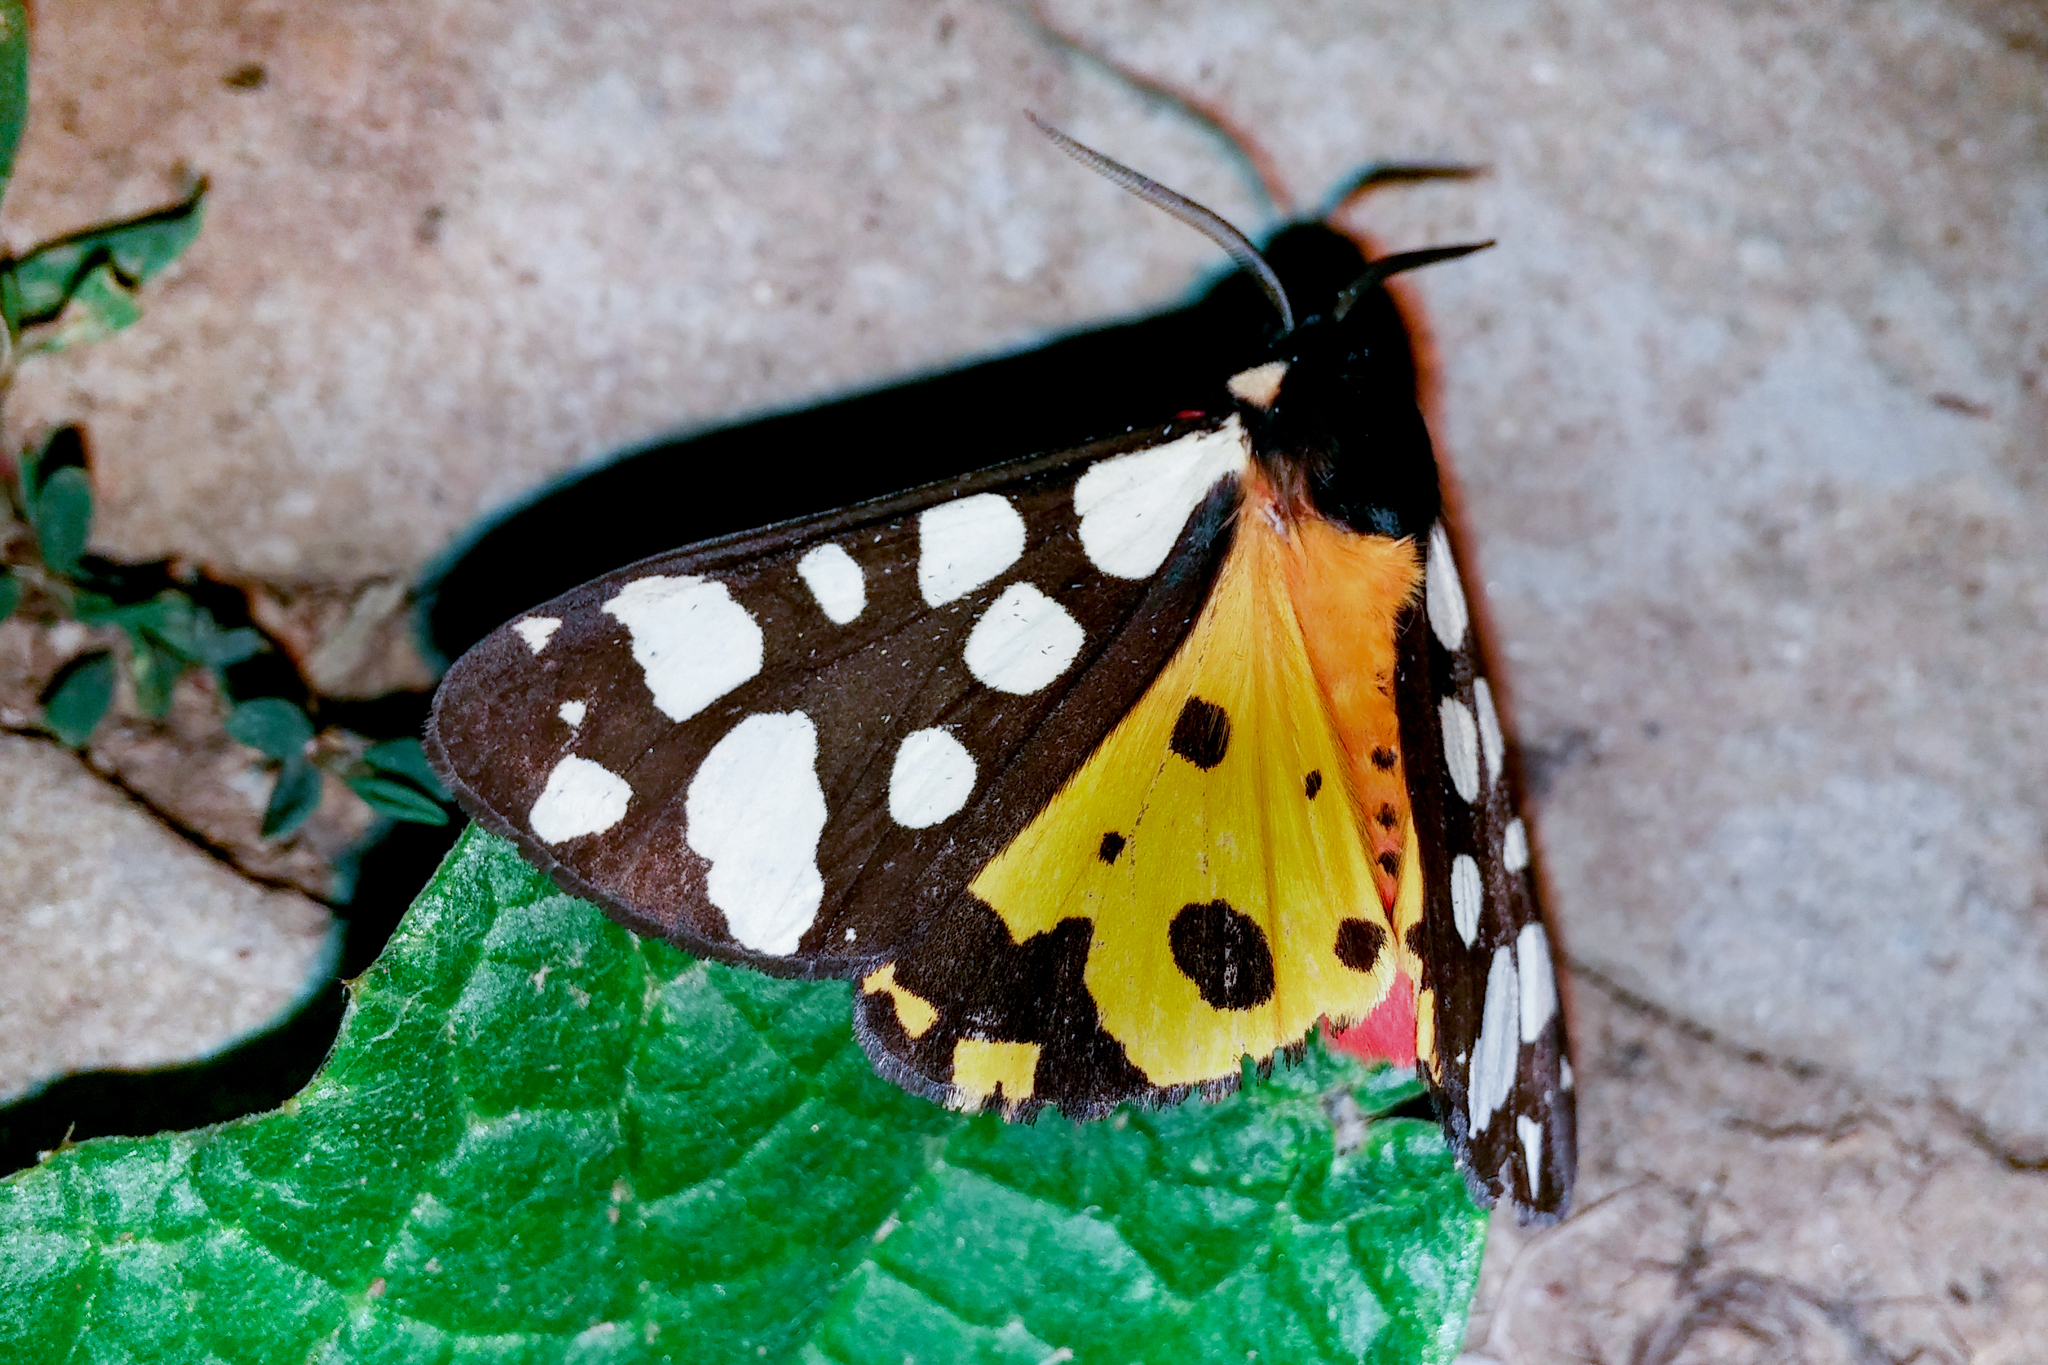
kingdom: Animalia
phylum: Arthropoda
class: Insecta
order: Lepidoptera
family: Erebidae
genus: Epicallia
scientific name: Epicallia villica
